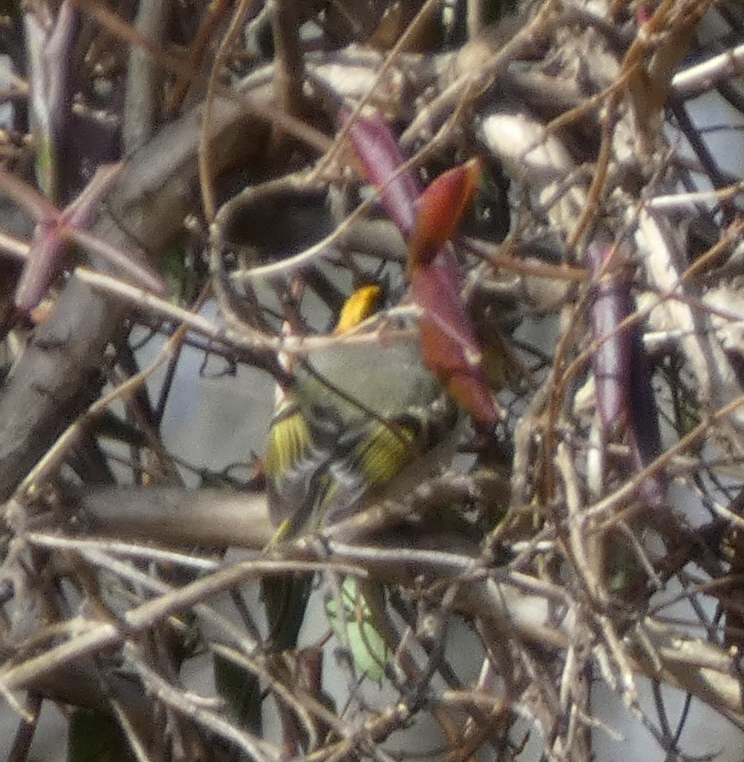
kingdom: Animalia
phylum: Chordata
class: Aves
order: Passeriformes
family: Regulidae
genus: Regulus
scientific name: Regulus satrapa
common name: Golden-crowned kinglet
